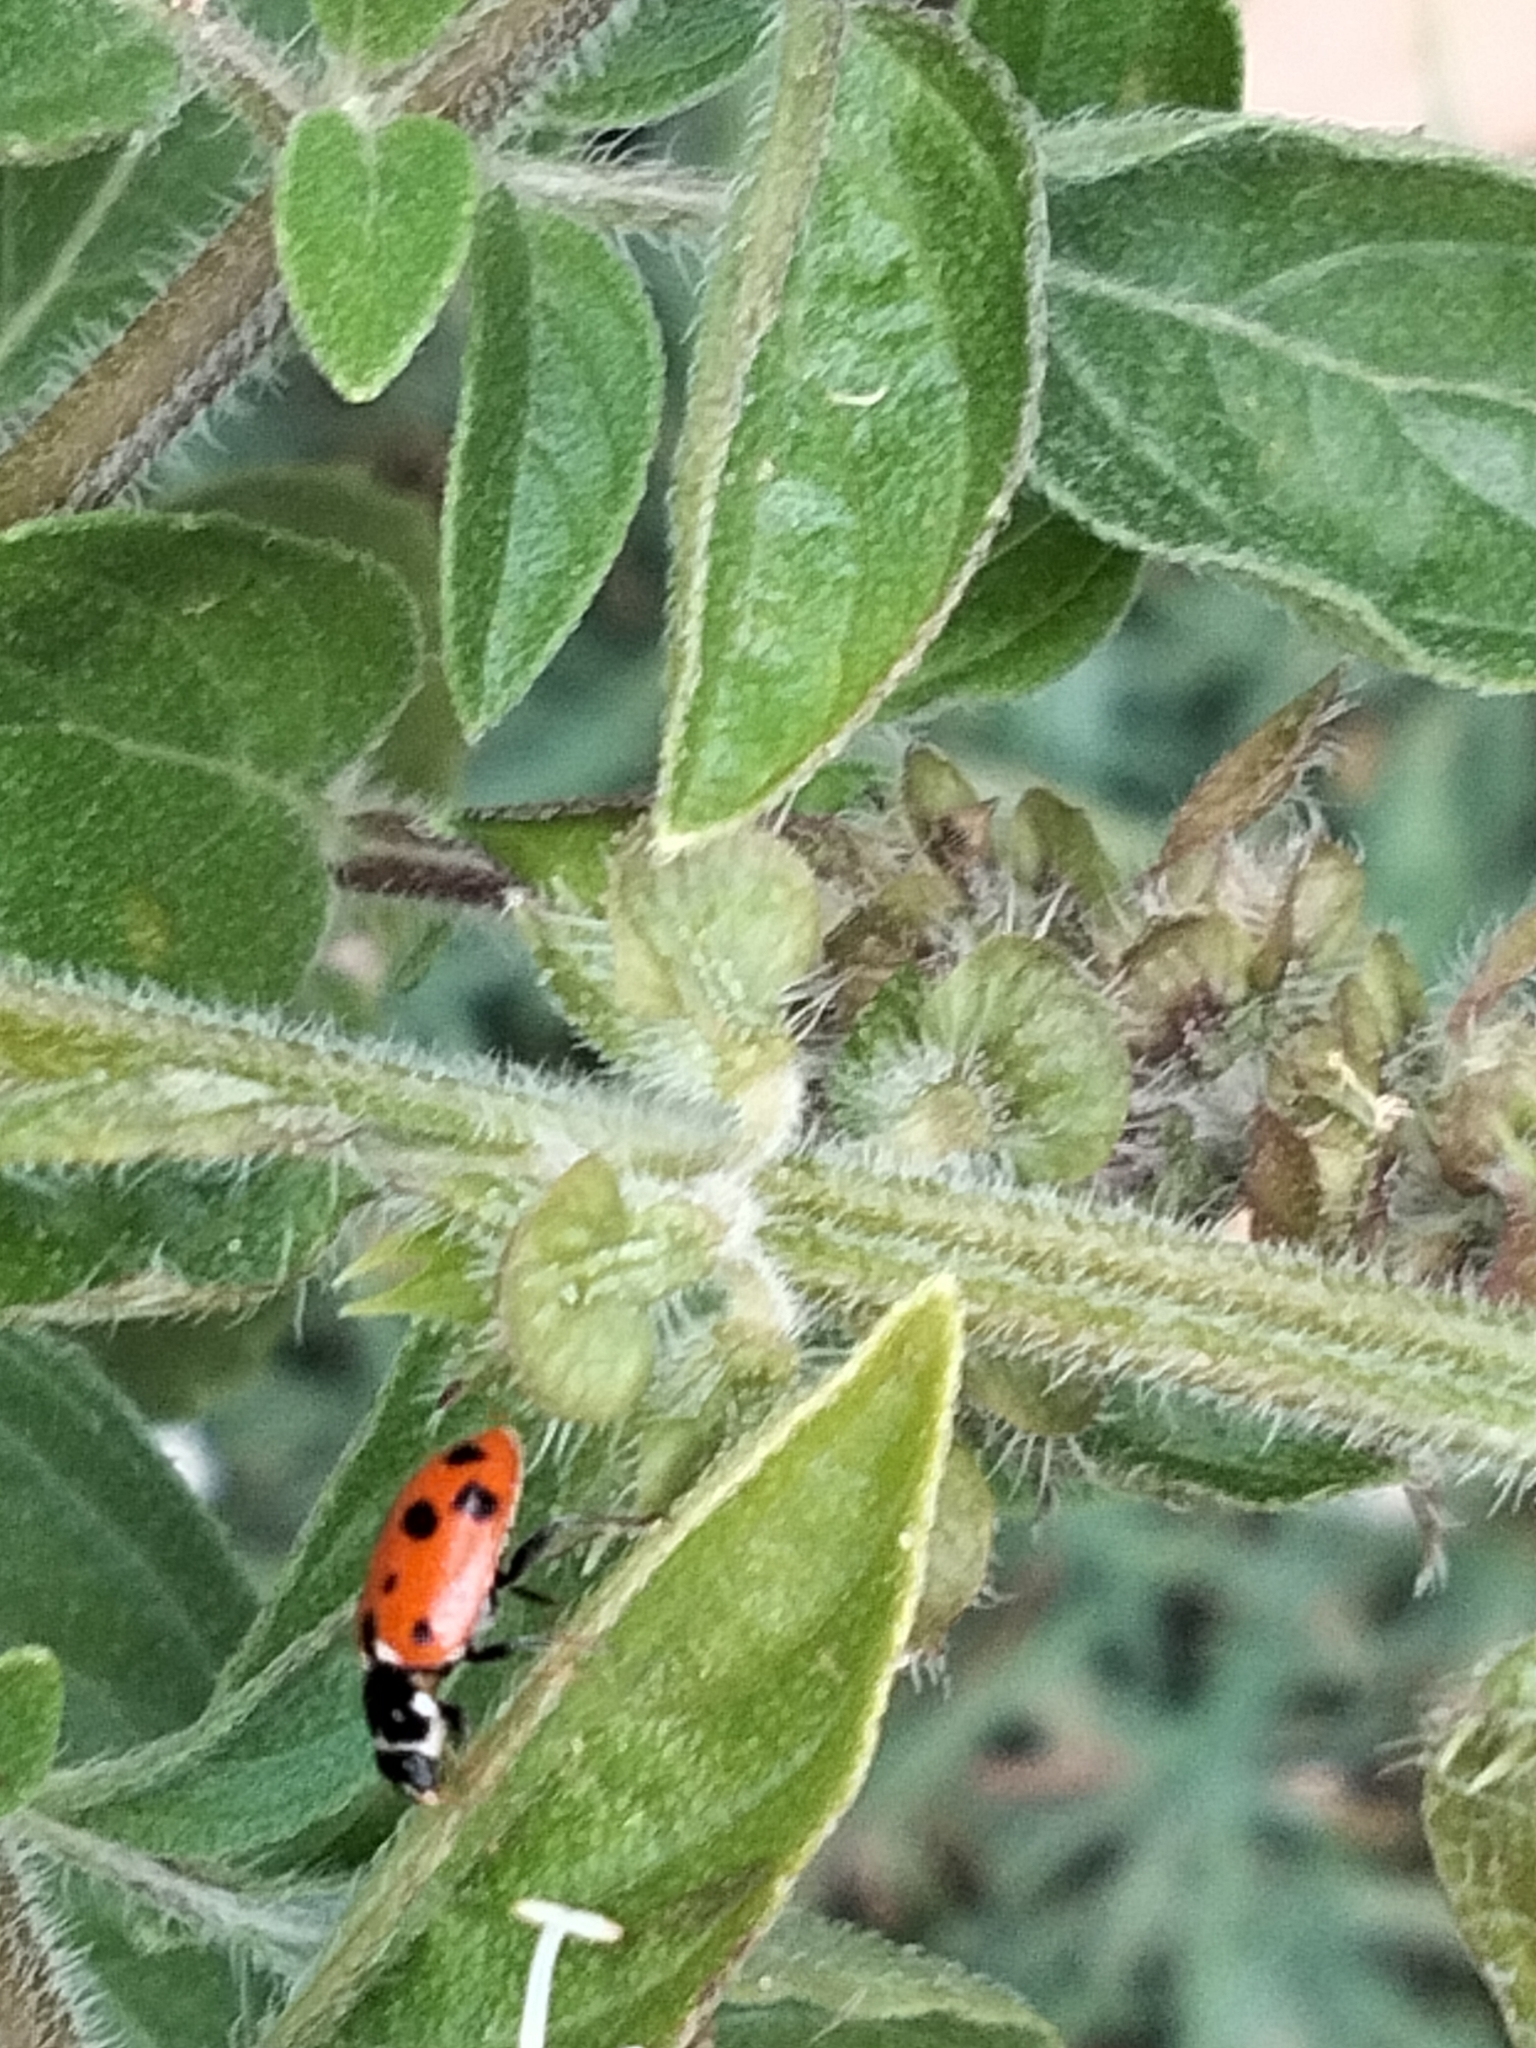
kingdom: Animalia
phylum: Arthropoda
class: Insecta
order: Coleoptera
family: Coccinellidae
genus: Hippodamia
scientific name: Hippodamia variegata
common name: Ladybird beetle
